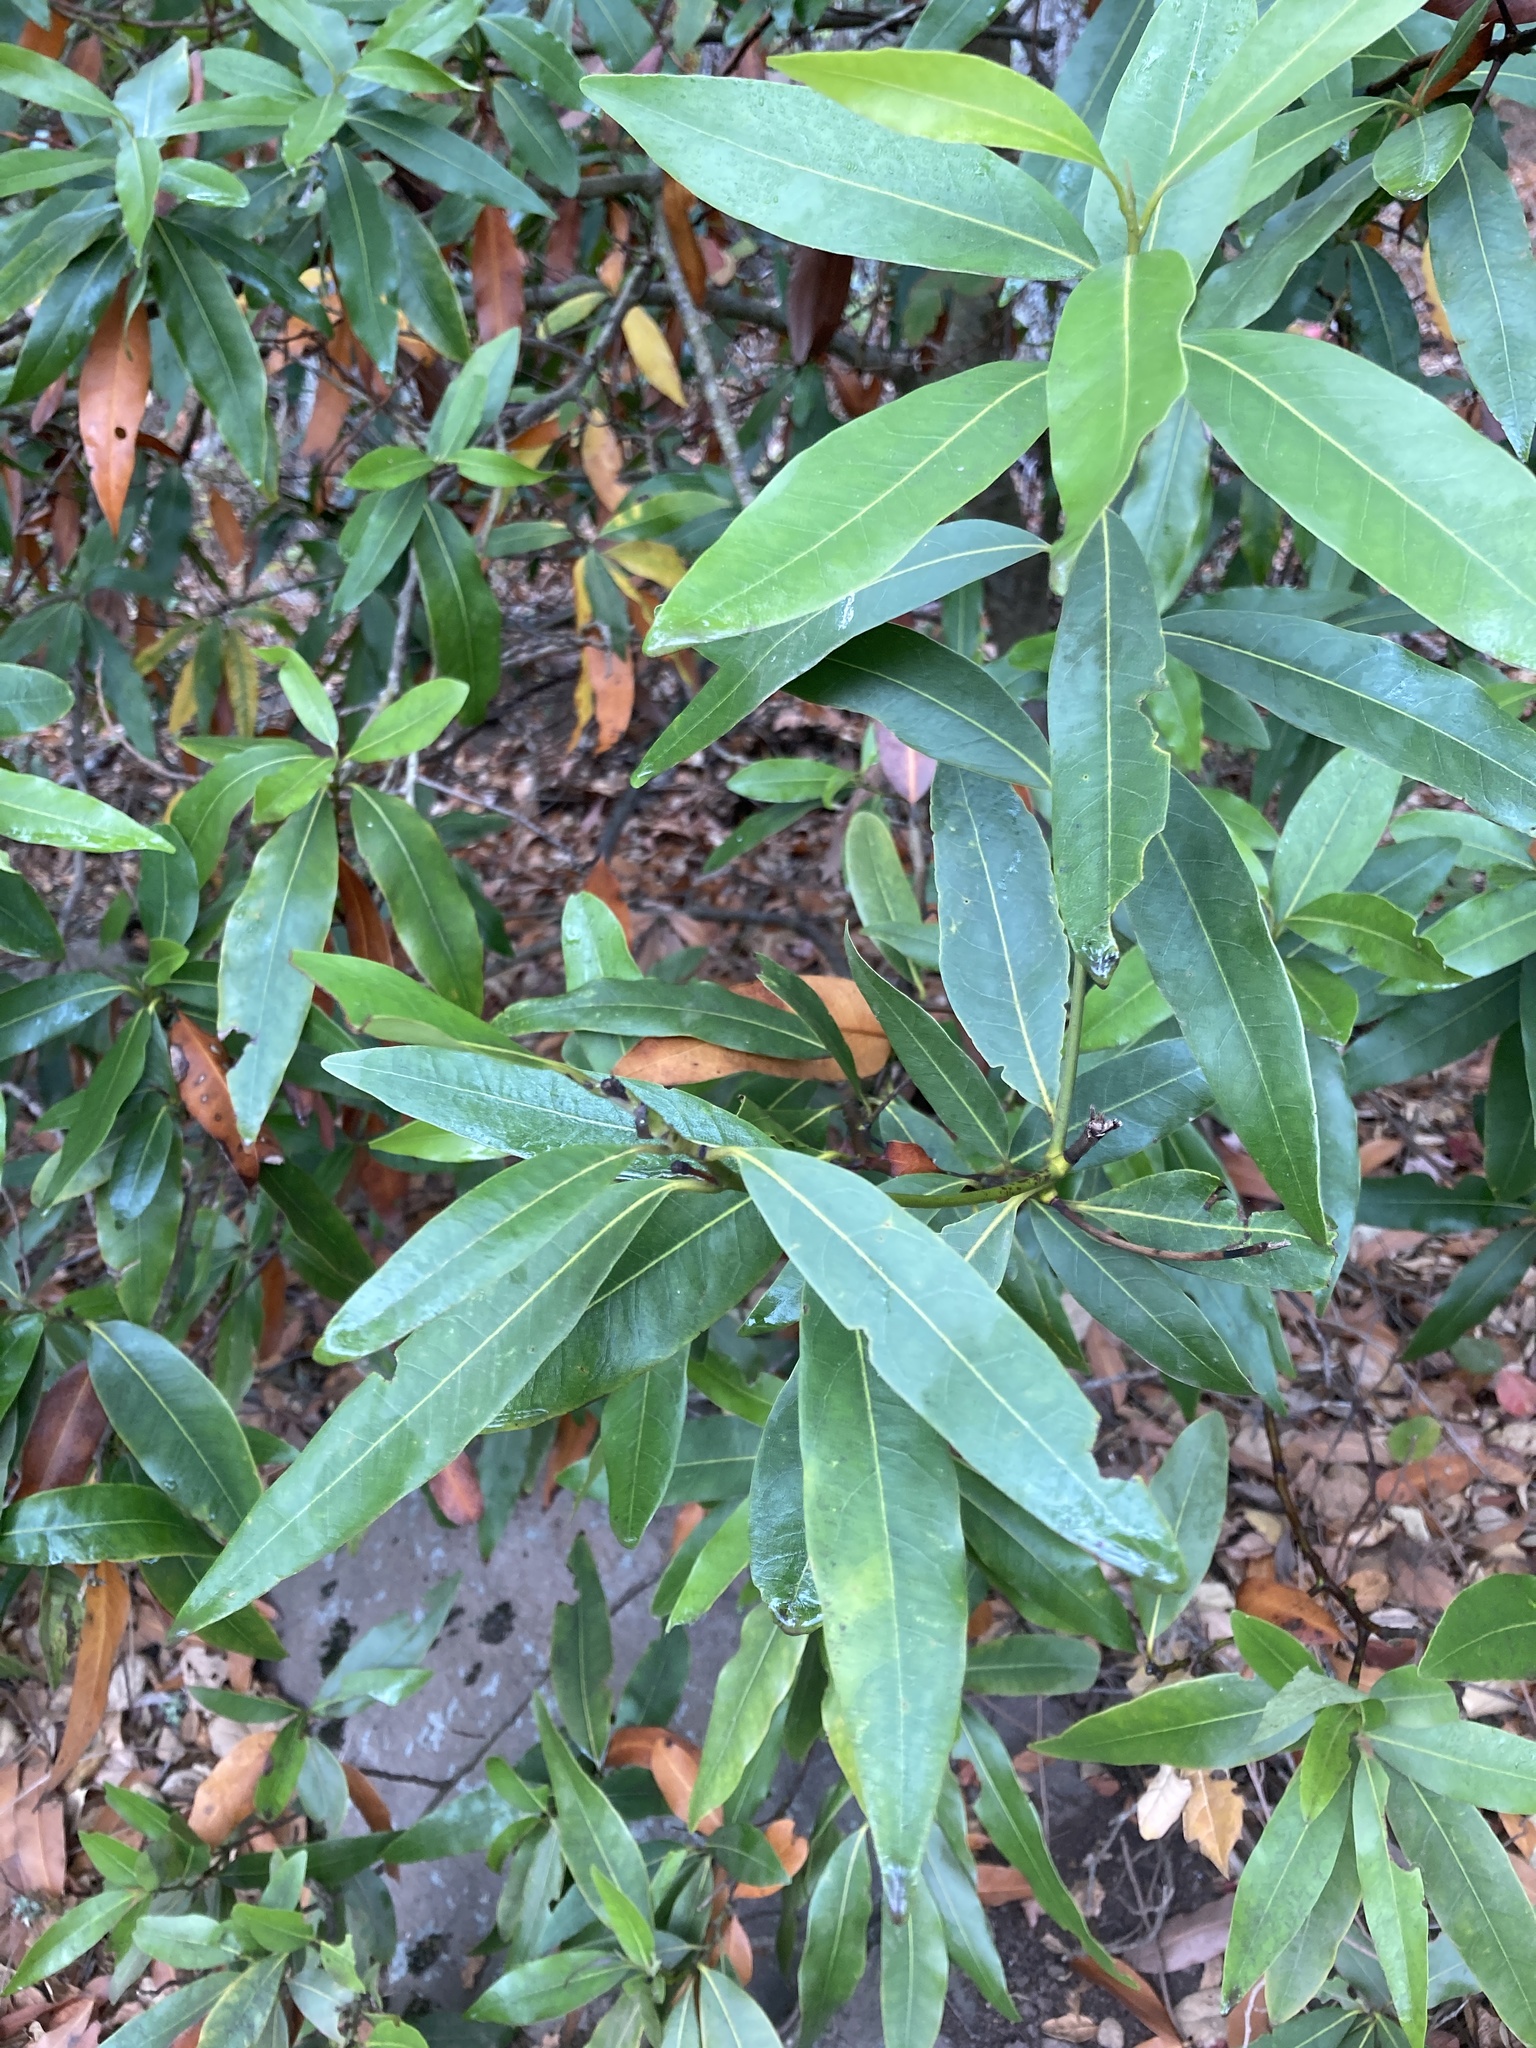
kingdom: Plantae
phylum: Tracheophyta
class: Magnoliopsida
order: Laurales
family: Lauraceae
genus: Umbellularia
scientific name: Umbellularia californica
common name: California bay
